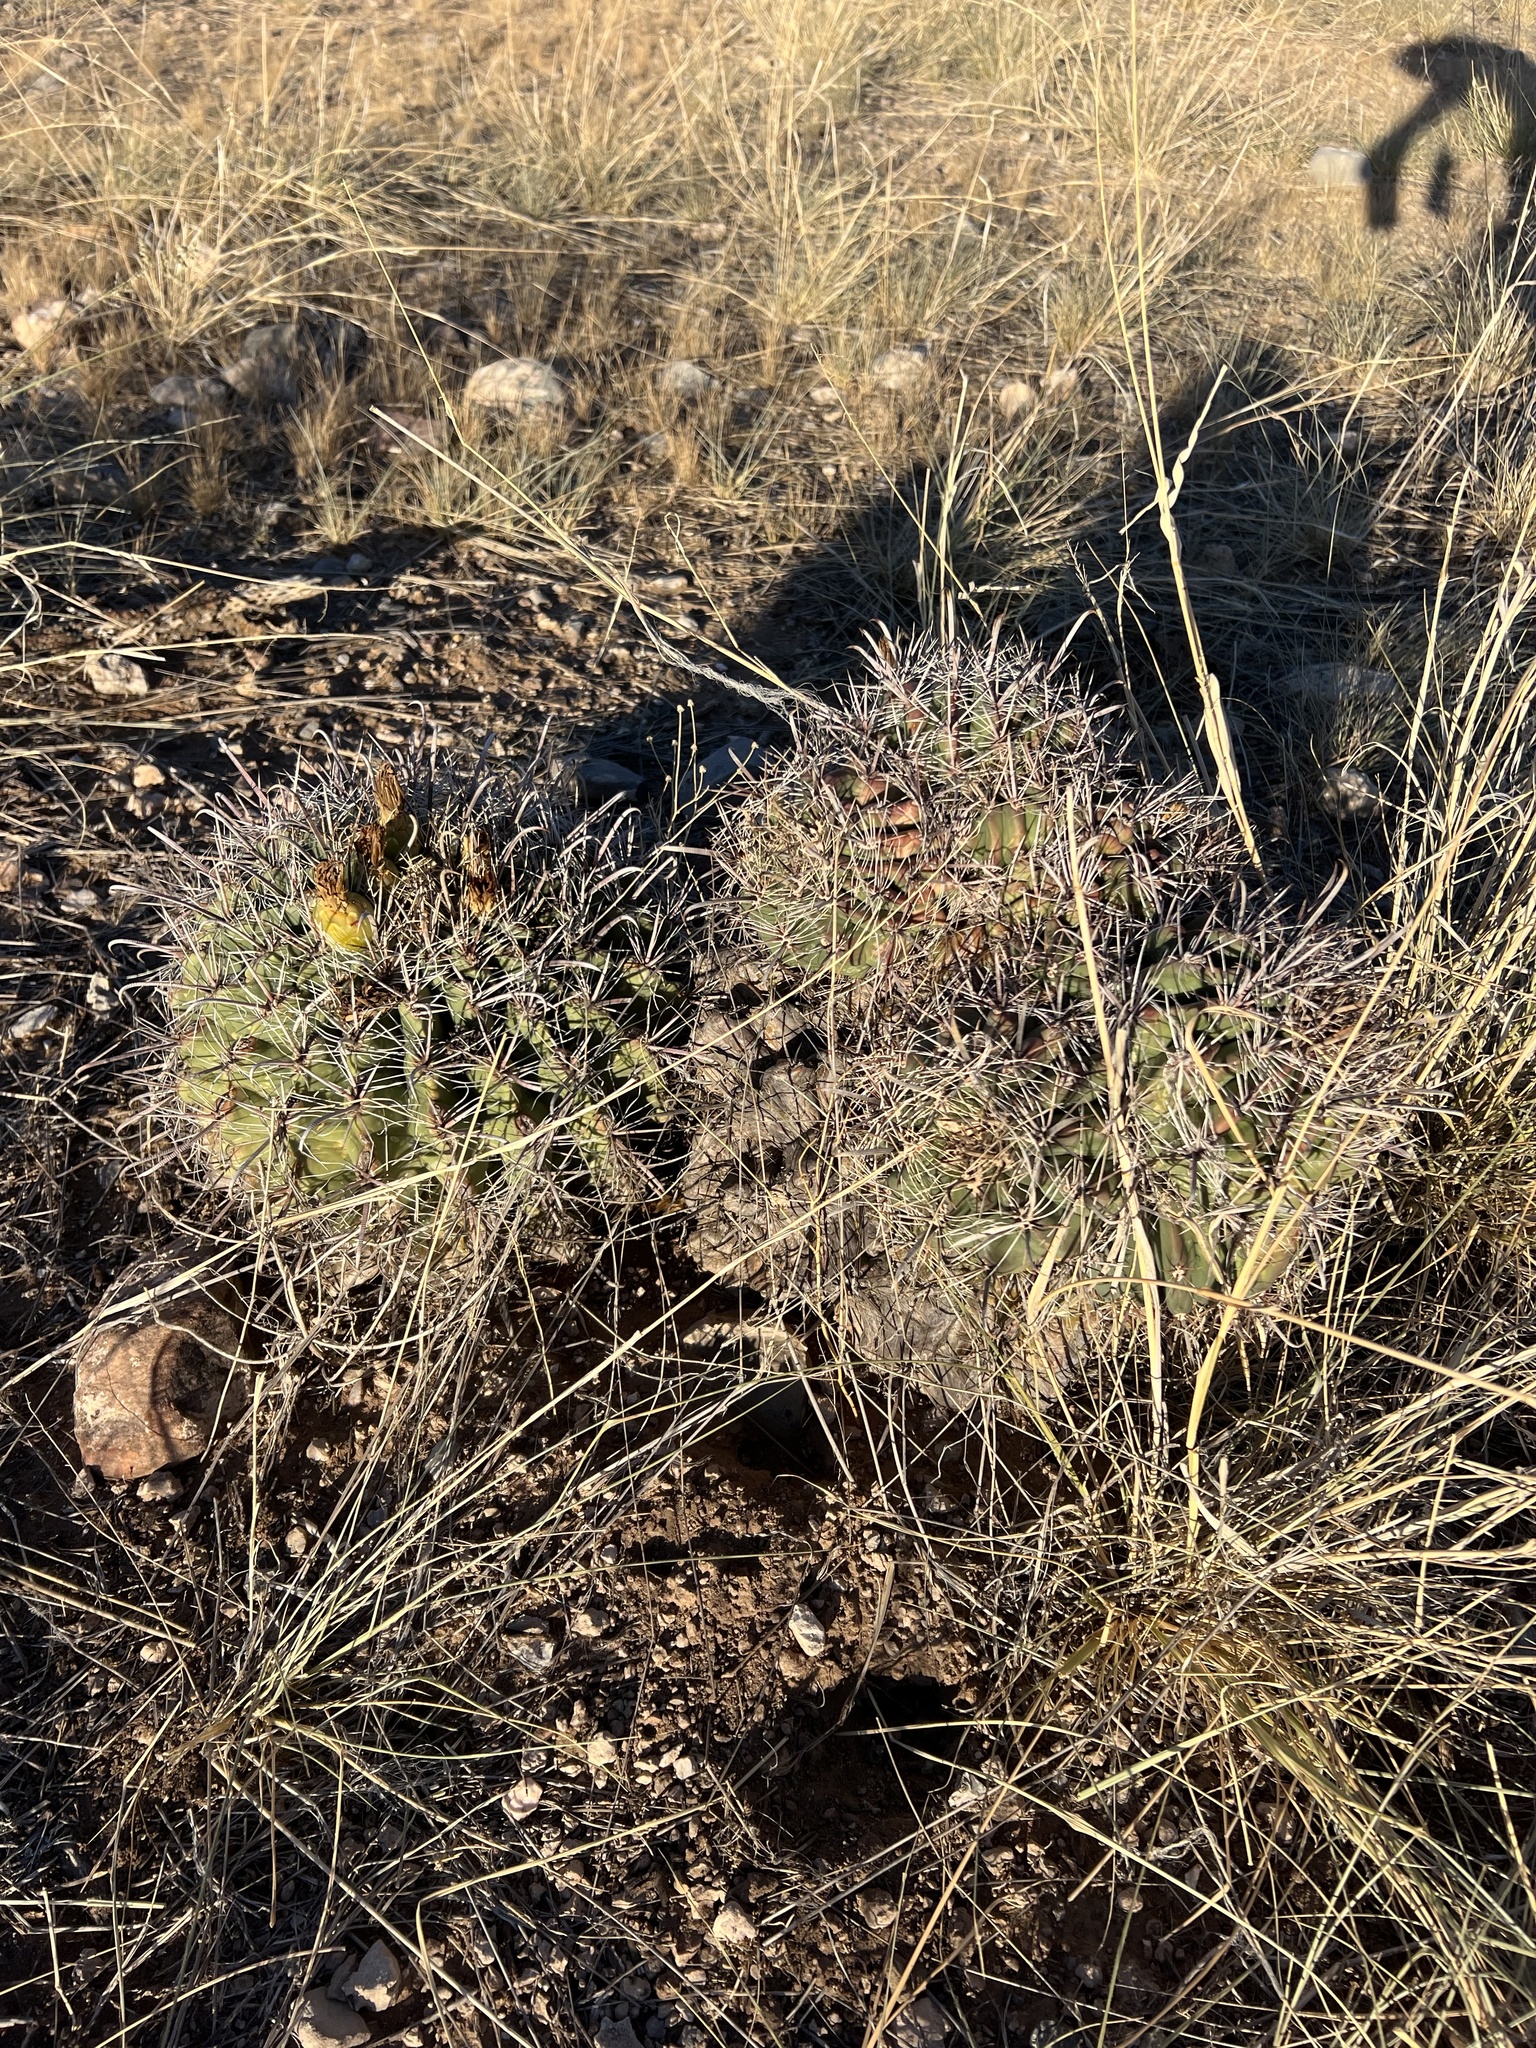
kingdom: Plantae
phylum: Tracheophyta
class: Magnoliopsida
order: Caryophyllales
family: Cactaceae
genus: Ferocactus
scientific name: Ferocactus wislizeni
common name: Candy barrel cactus
